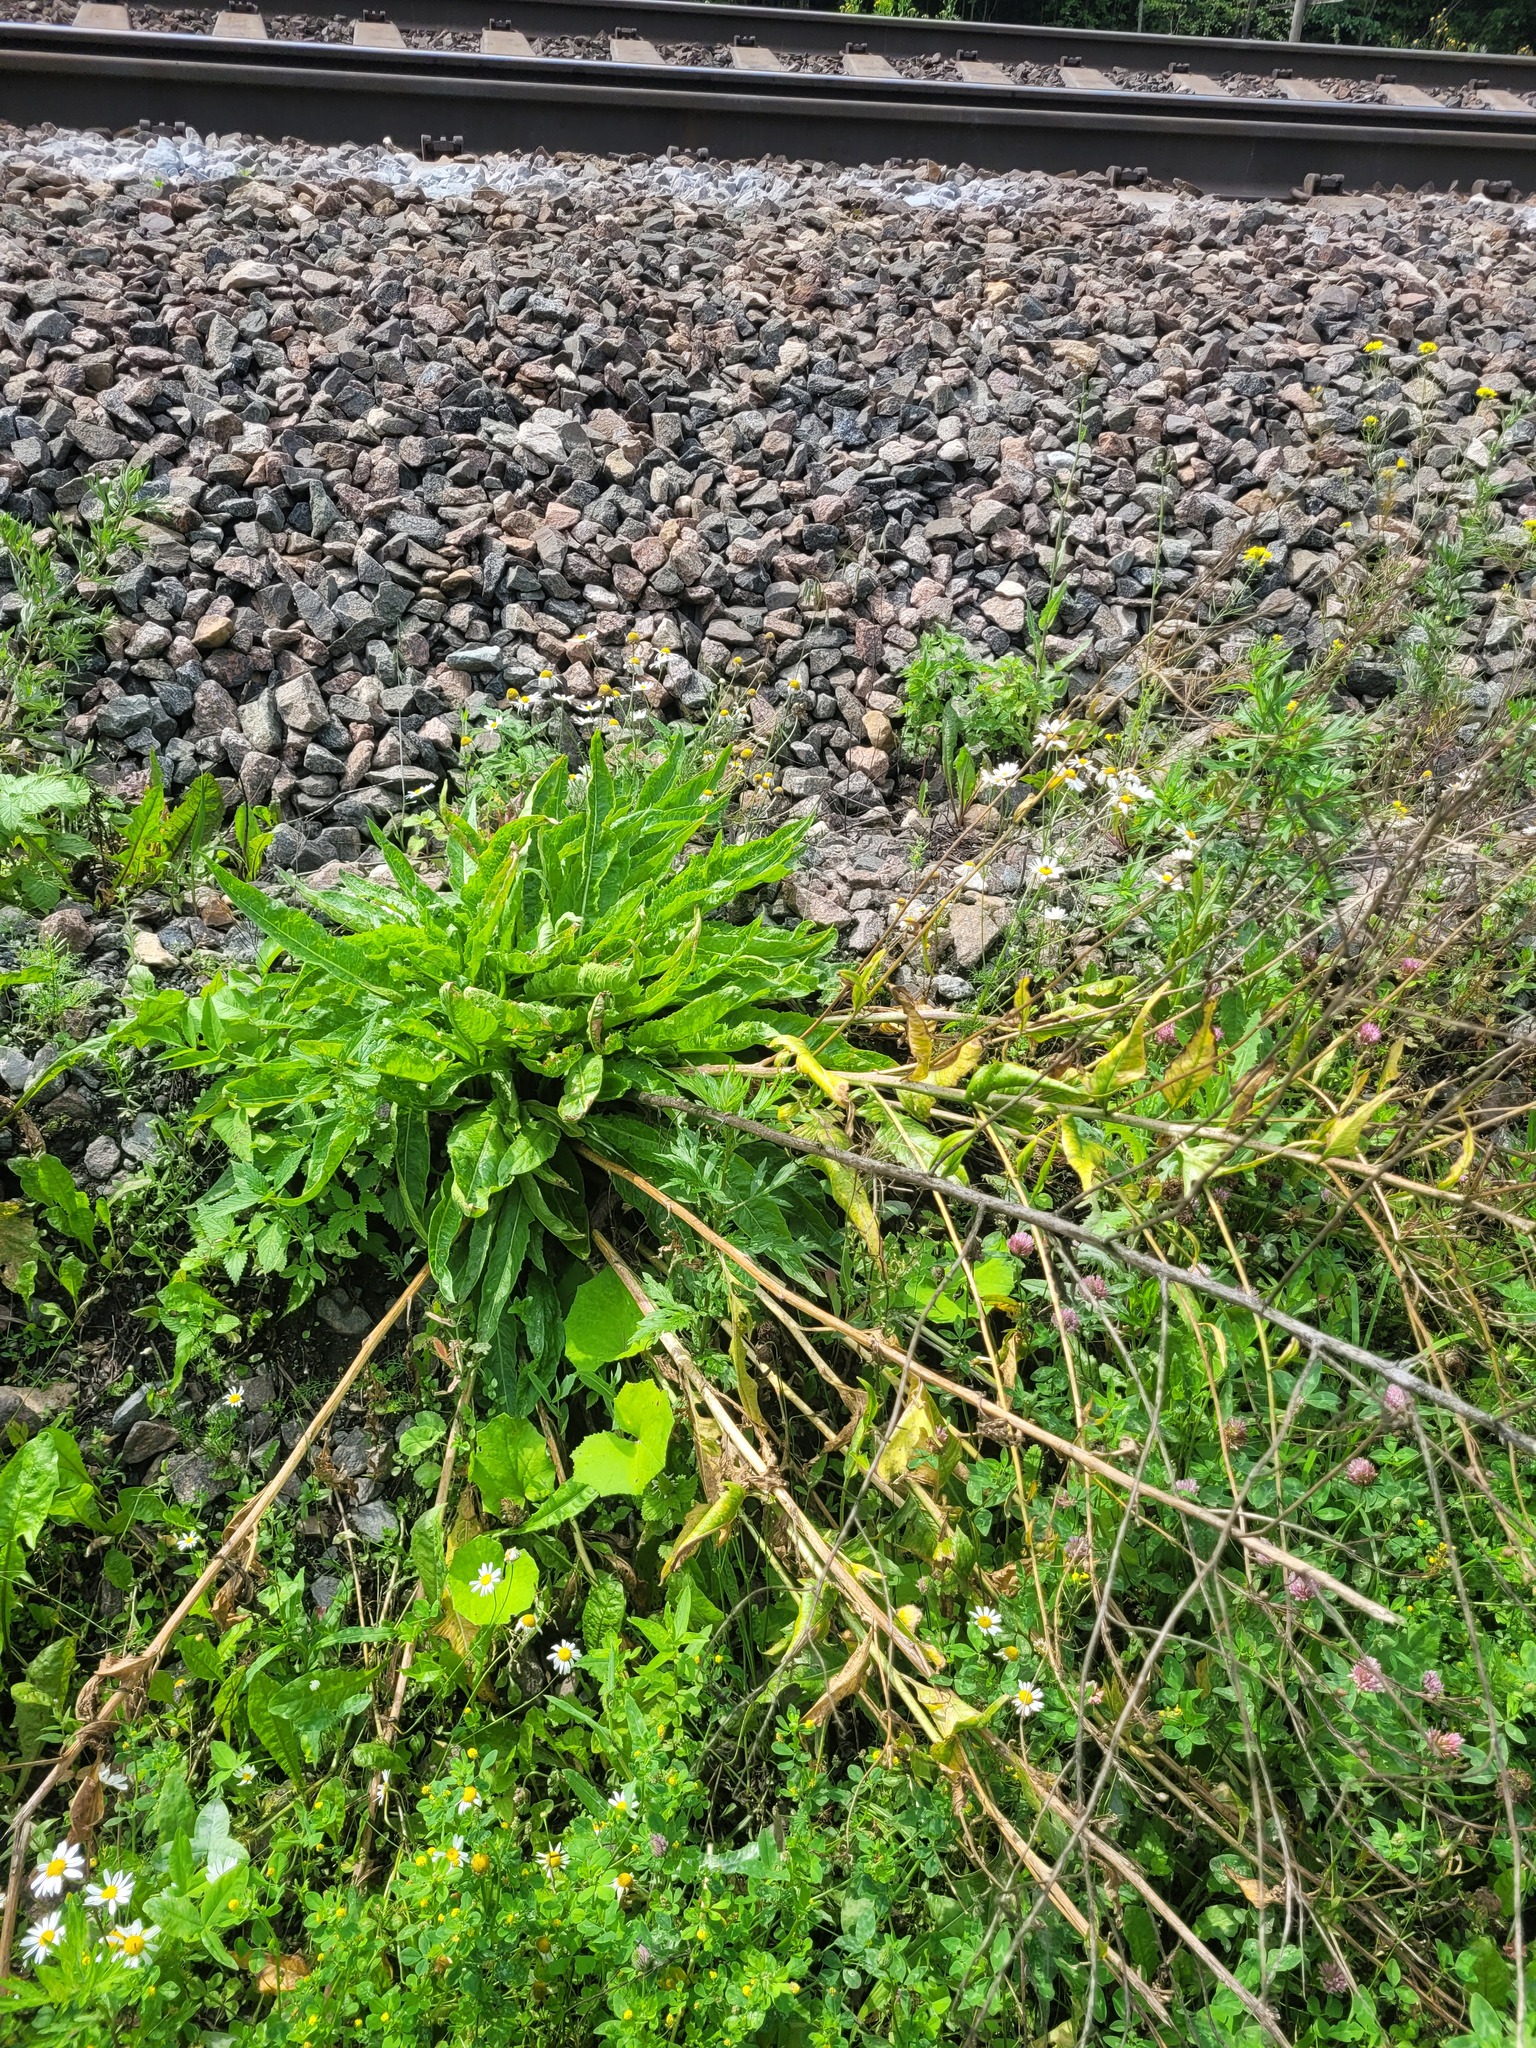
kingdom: Plantae
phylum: Tracheophyta
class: Magnoliopsida
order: Brassicales
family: Brassicaceae
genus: Bunias
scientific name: Bunias orientalis
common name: Warty-cabbage
